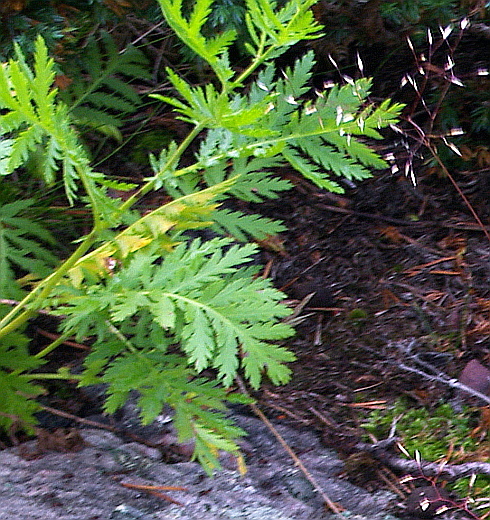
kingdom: Plantae
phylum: Tracheophyta
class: Magnoliopsida
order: Asterales
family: Asteraceae
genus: Tanacetum
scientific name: Tanacetum vulgare
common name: Common tansy
